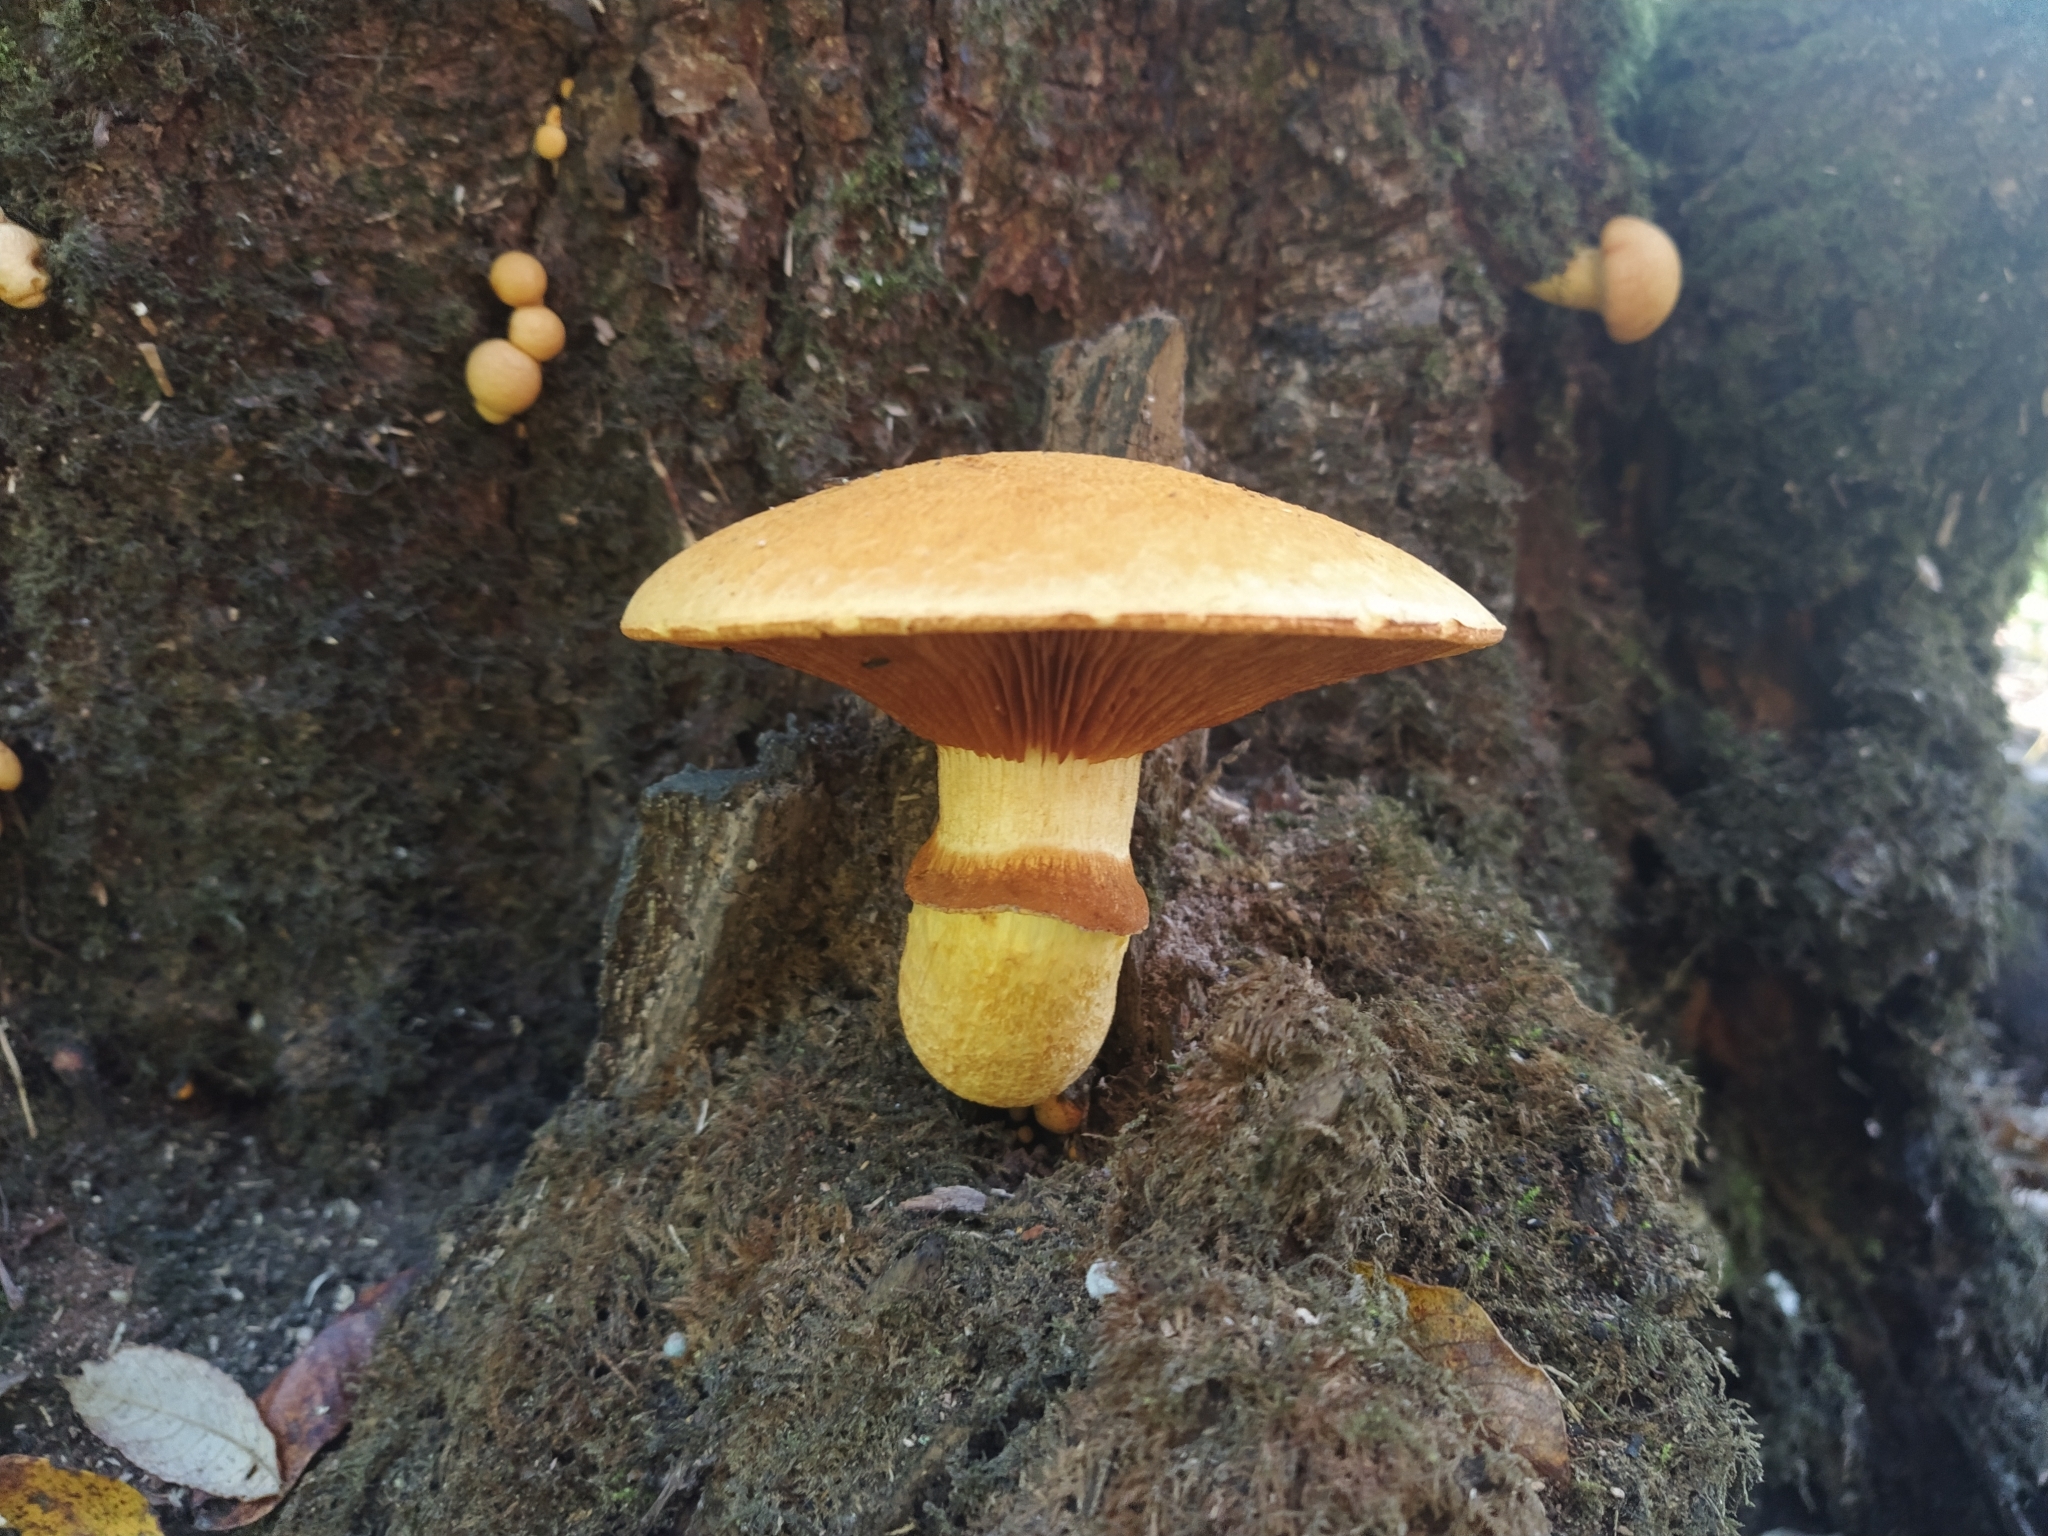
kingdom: Fungi
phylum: Basidiomycota
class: Agaricomycetes
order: Agaricales
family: Hymenogastraceae
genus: Gymnopilus
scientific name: Gymnopilus junonius
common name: Spectacular rustgill
